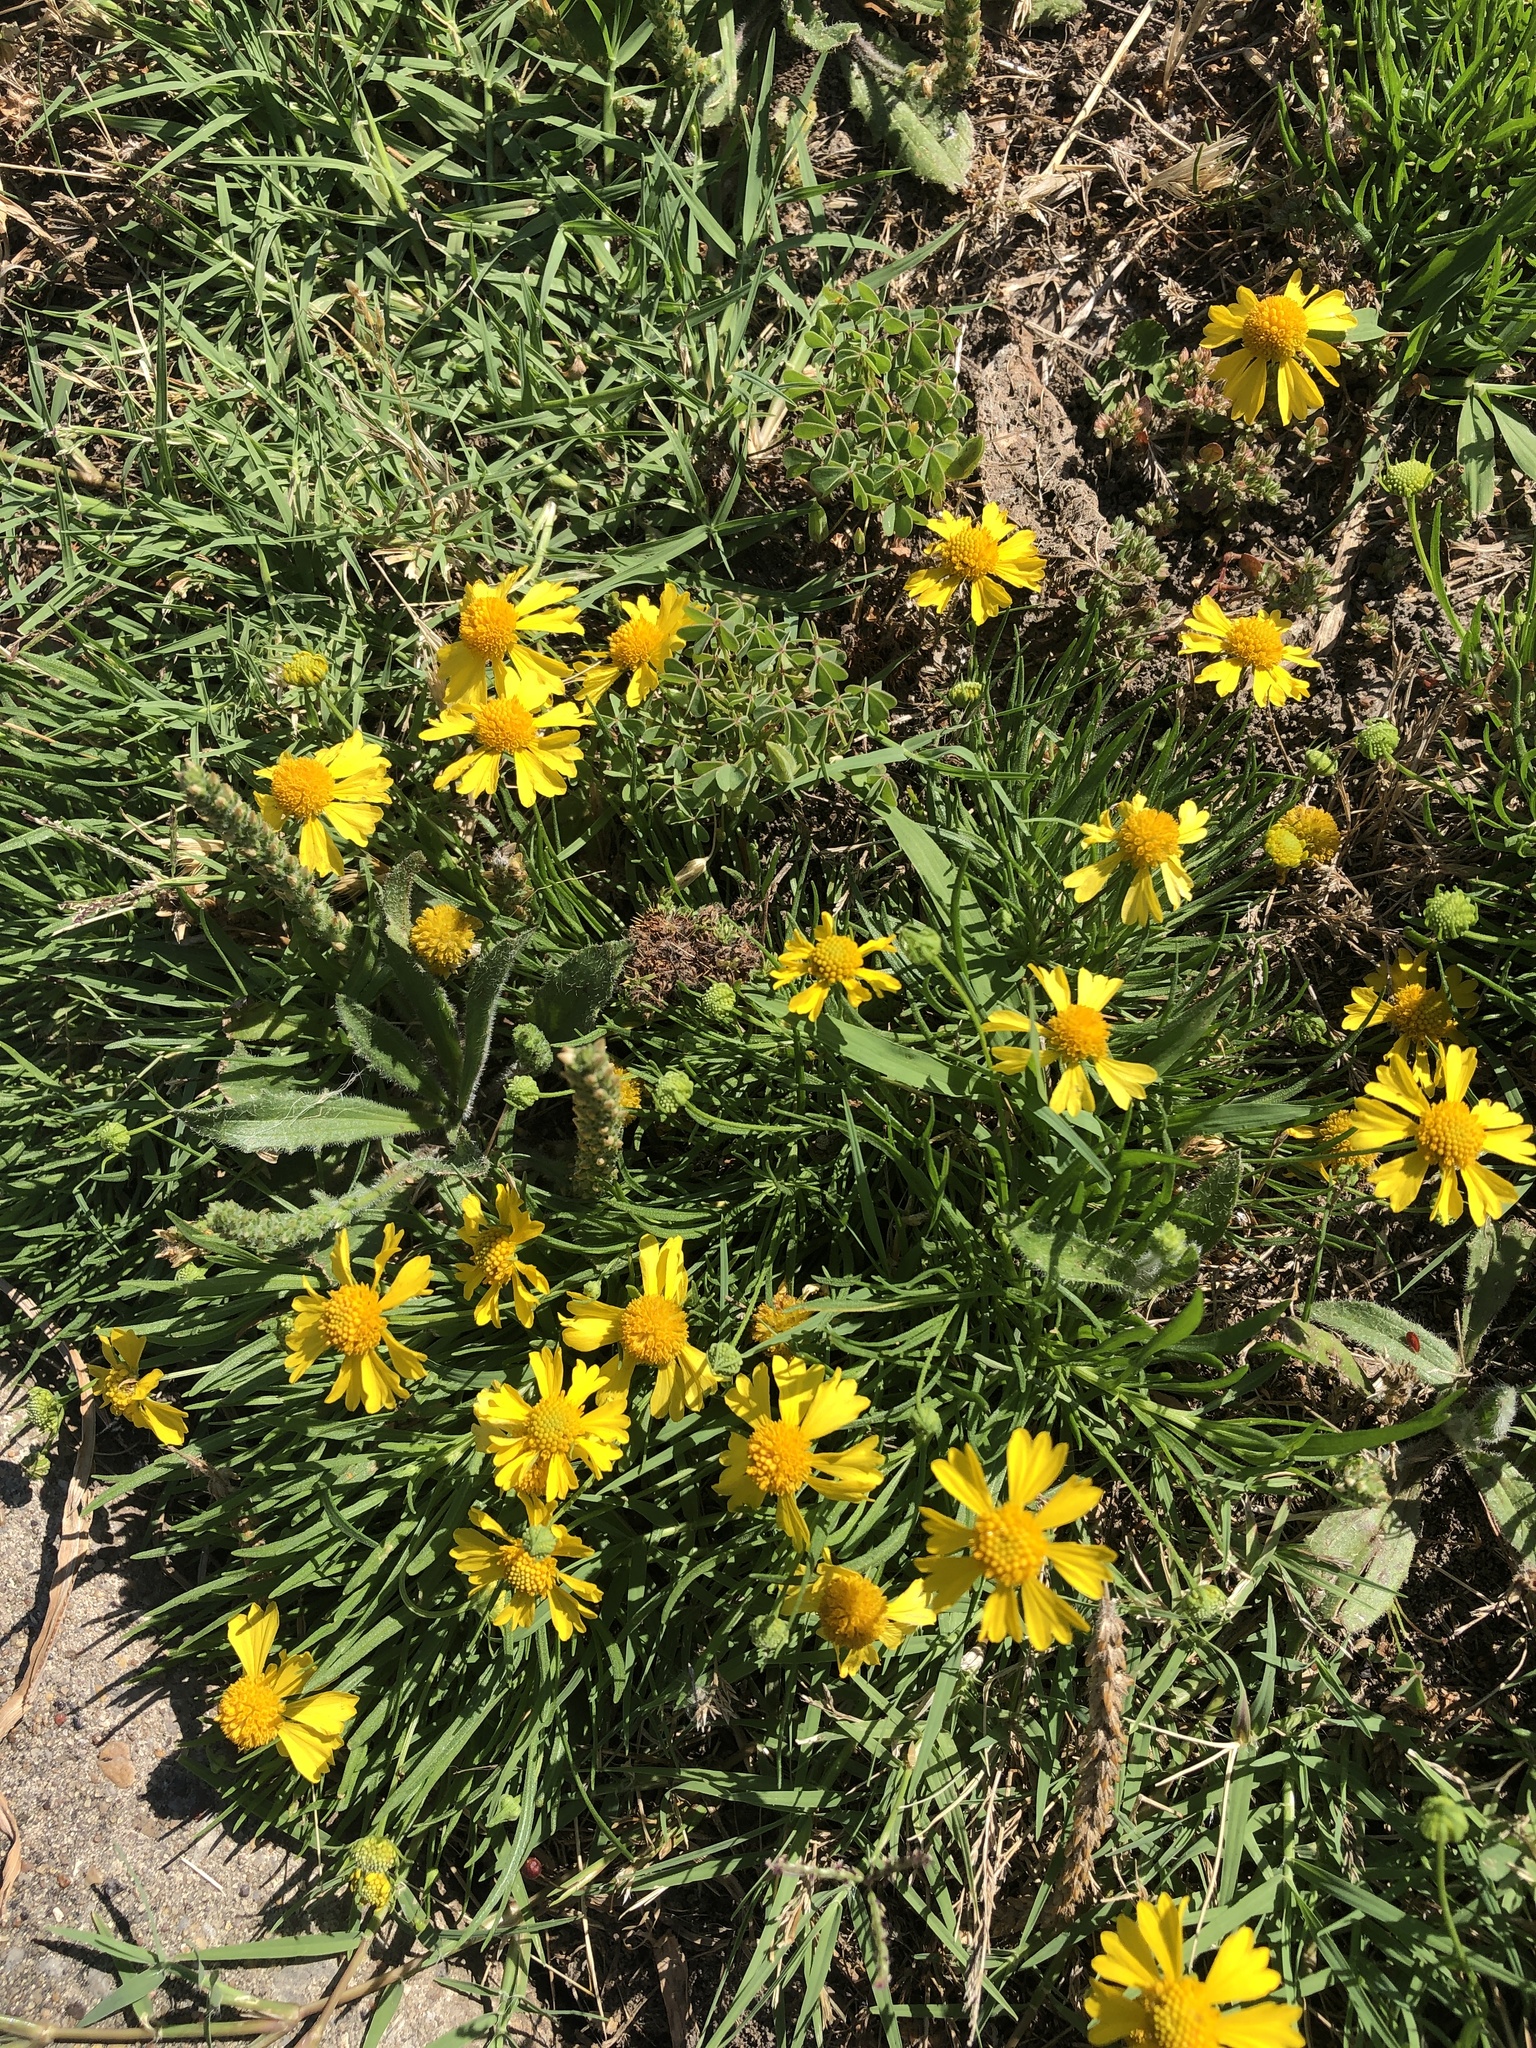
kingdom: Plantae
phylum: Tracheophyta
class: Magnoliopsida
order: Asterales
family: Asteraceae
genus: Helenium
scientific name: Helenium amarum
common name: Bitter sneezeweed
